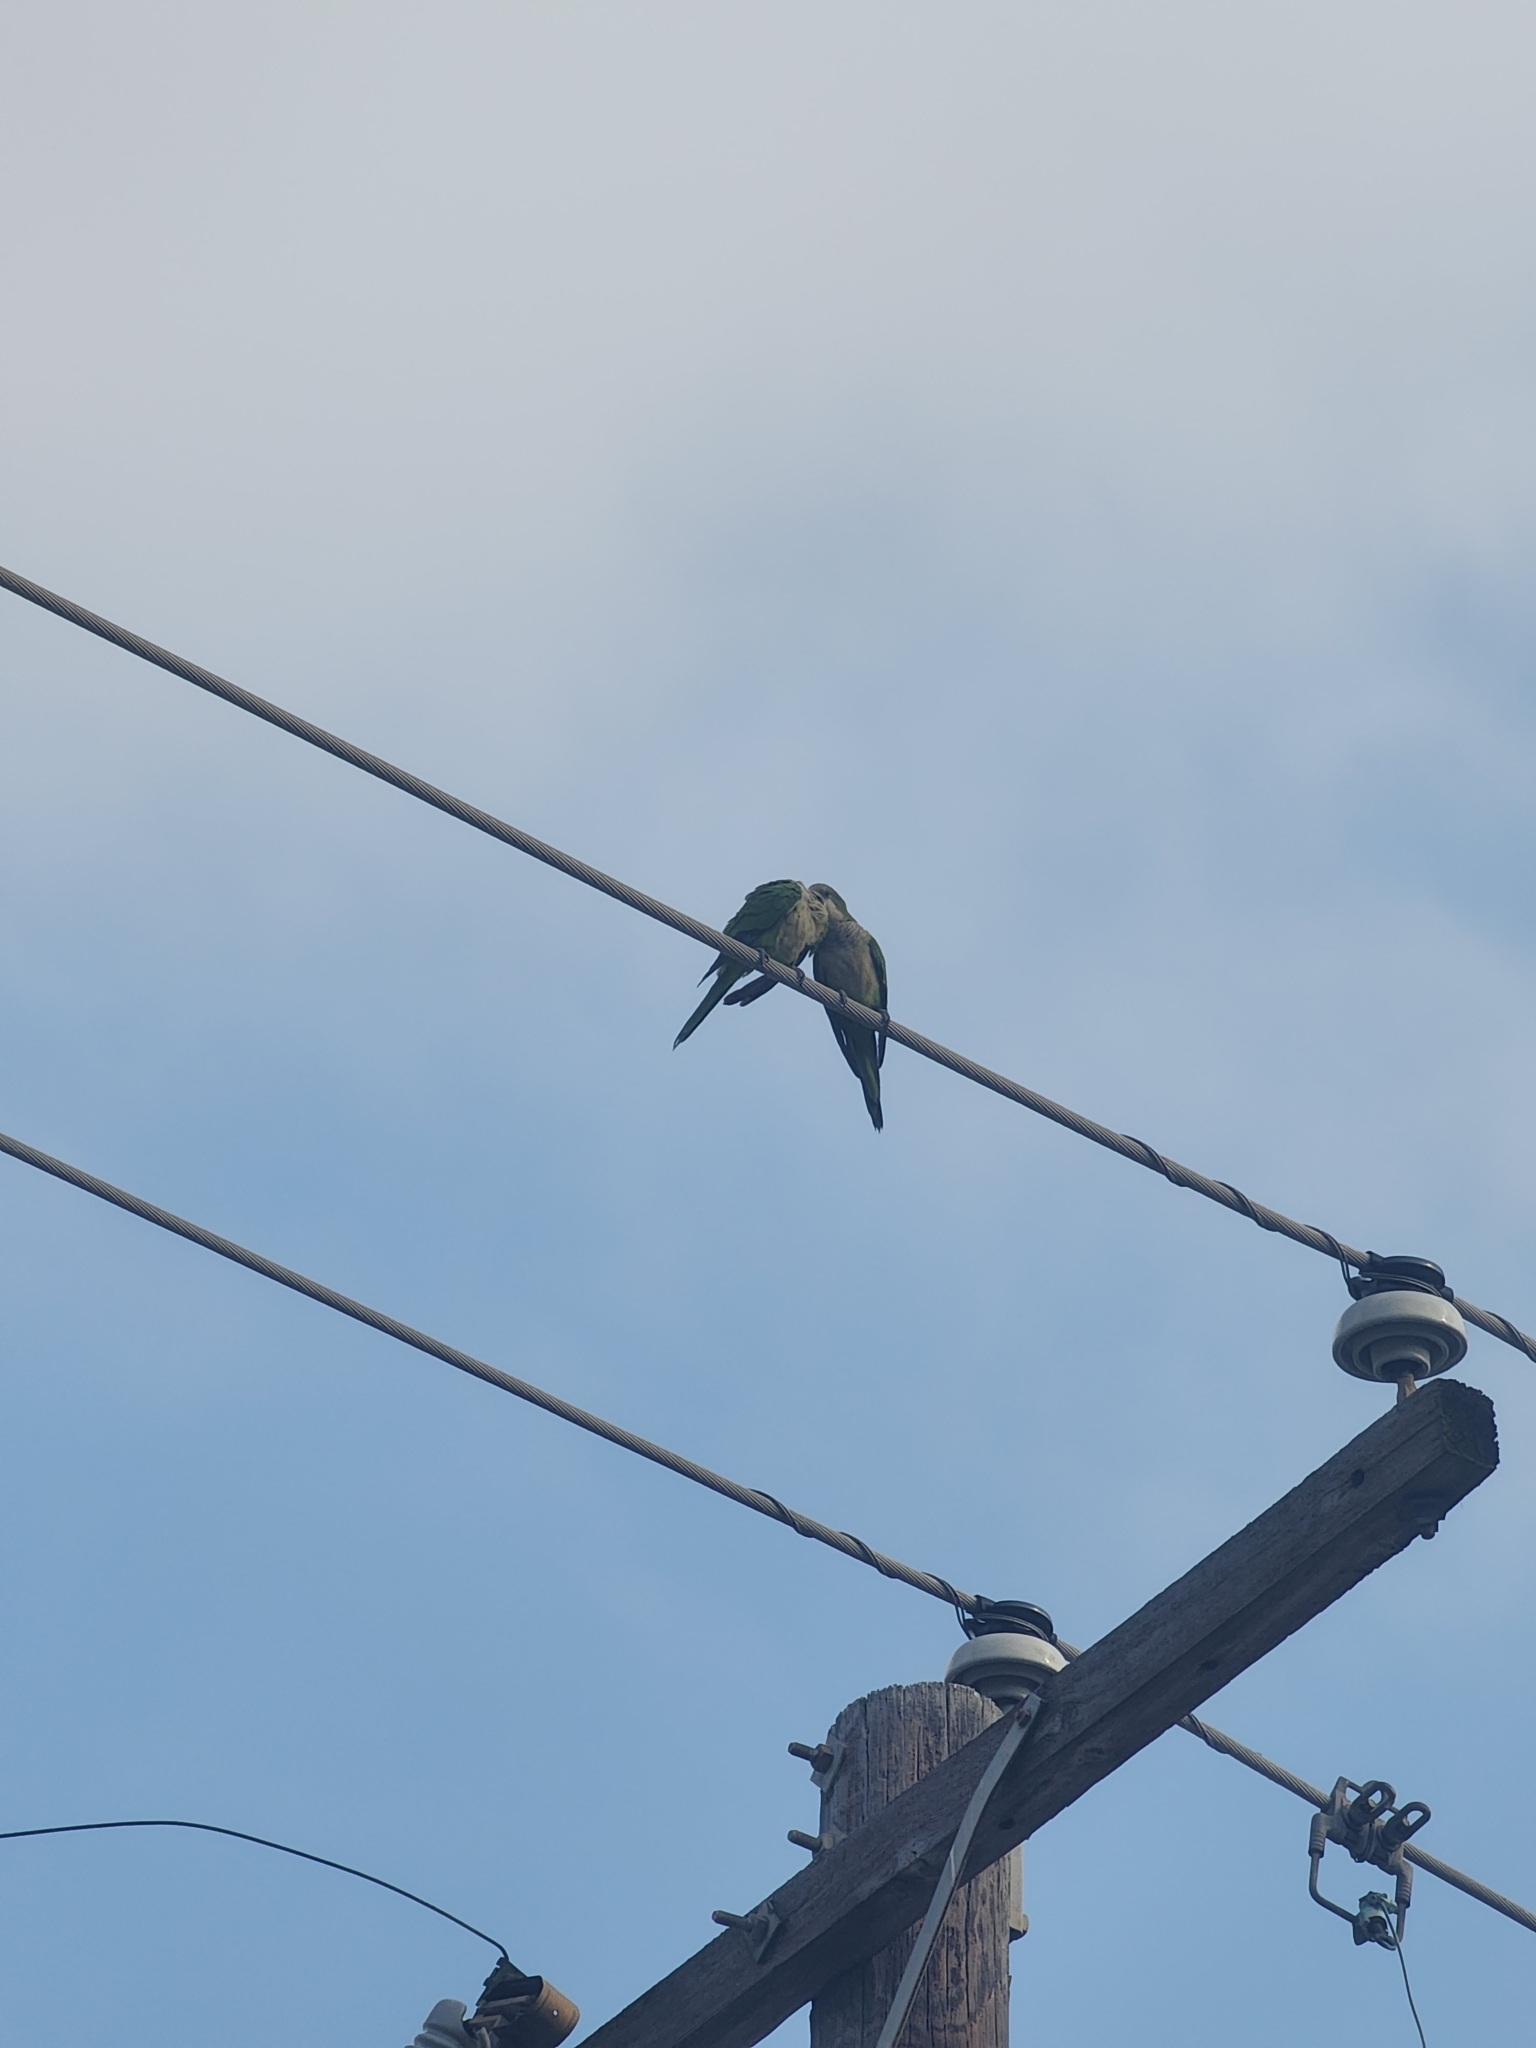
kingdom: Animalia
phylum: Chordata
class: Aves
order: Psittaciformes
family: Psittacidae
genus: Myiopsitta
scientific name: Myiopsitta monachus
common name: Monk parakeet
